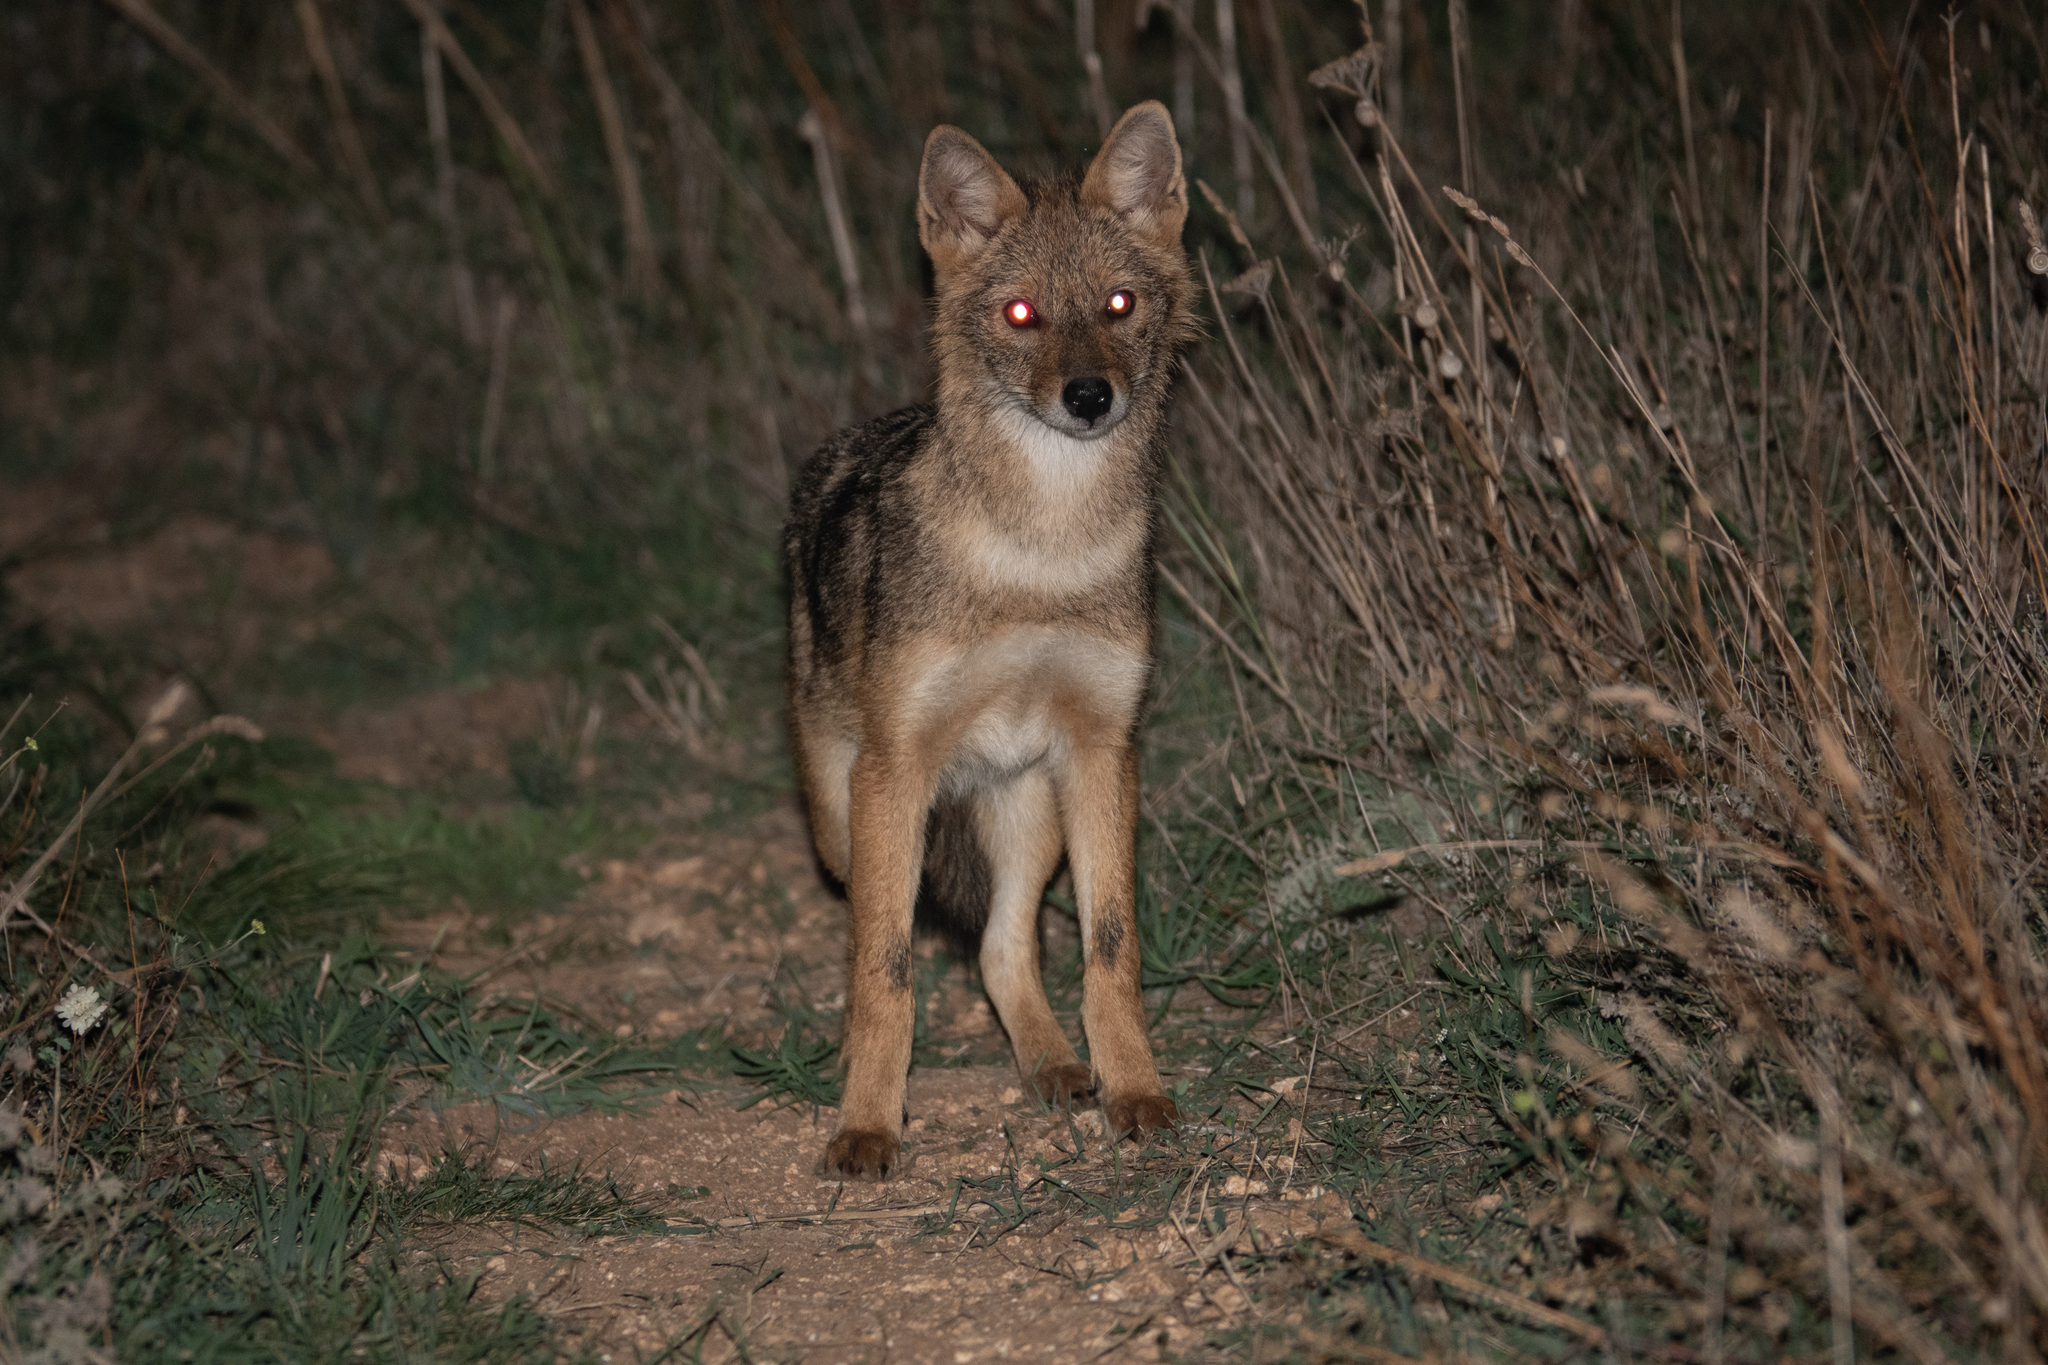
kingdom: Animalia
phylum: Chordata
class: Mammalia
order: Carnivora
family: Canidae
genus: Canis
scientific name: Canis aureus
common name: Golden jackal
